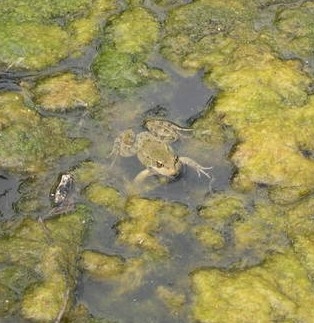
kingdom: Animalia
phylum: Chordata
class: Amphibia
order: Anura
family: Ranidae
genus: Pelophylax
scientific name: Pelophylax ridibundus
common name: Marsh frog
